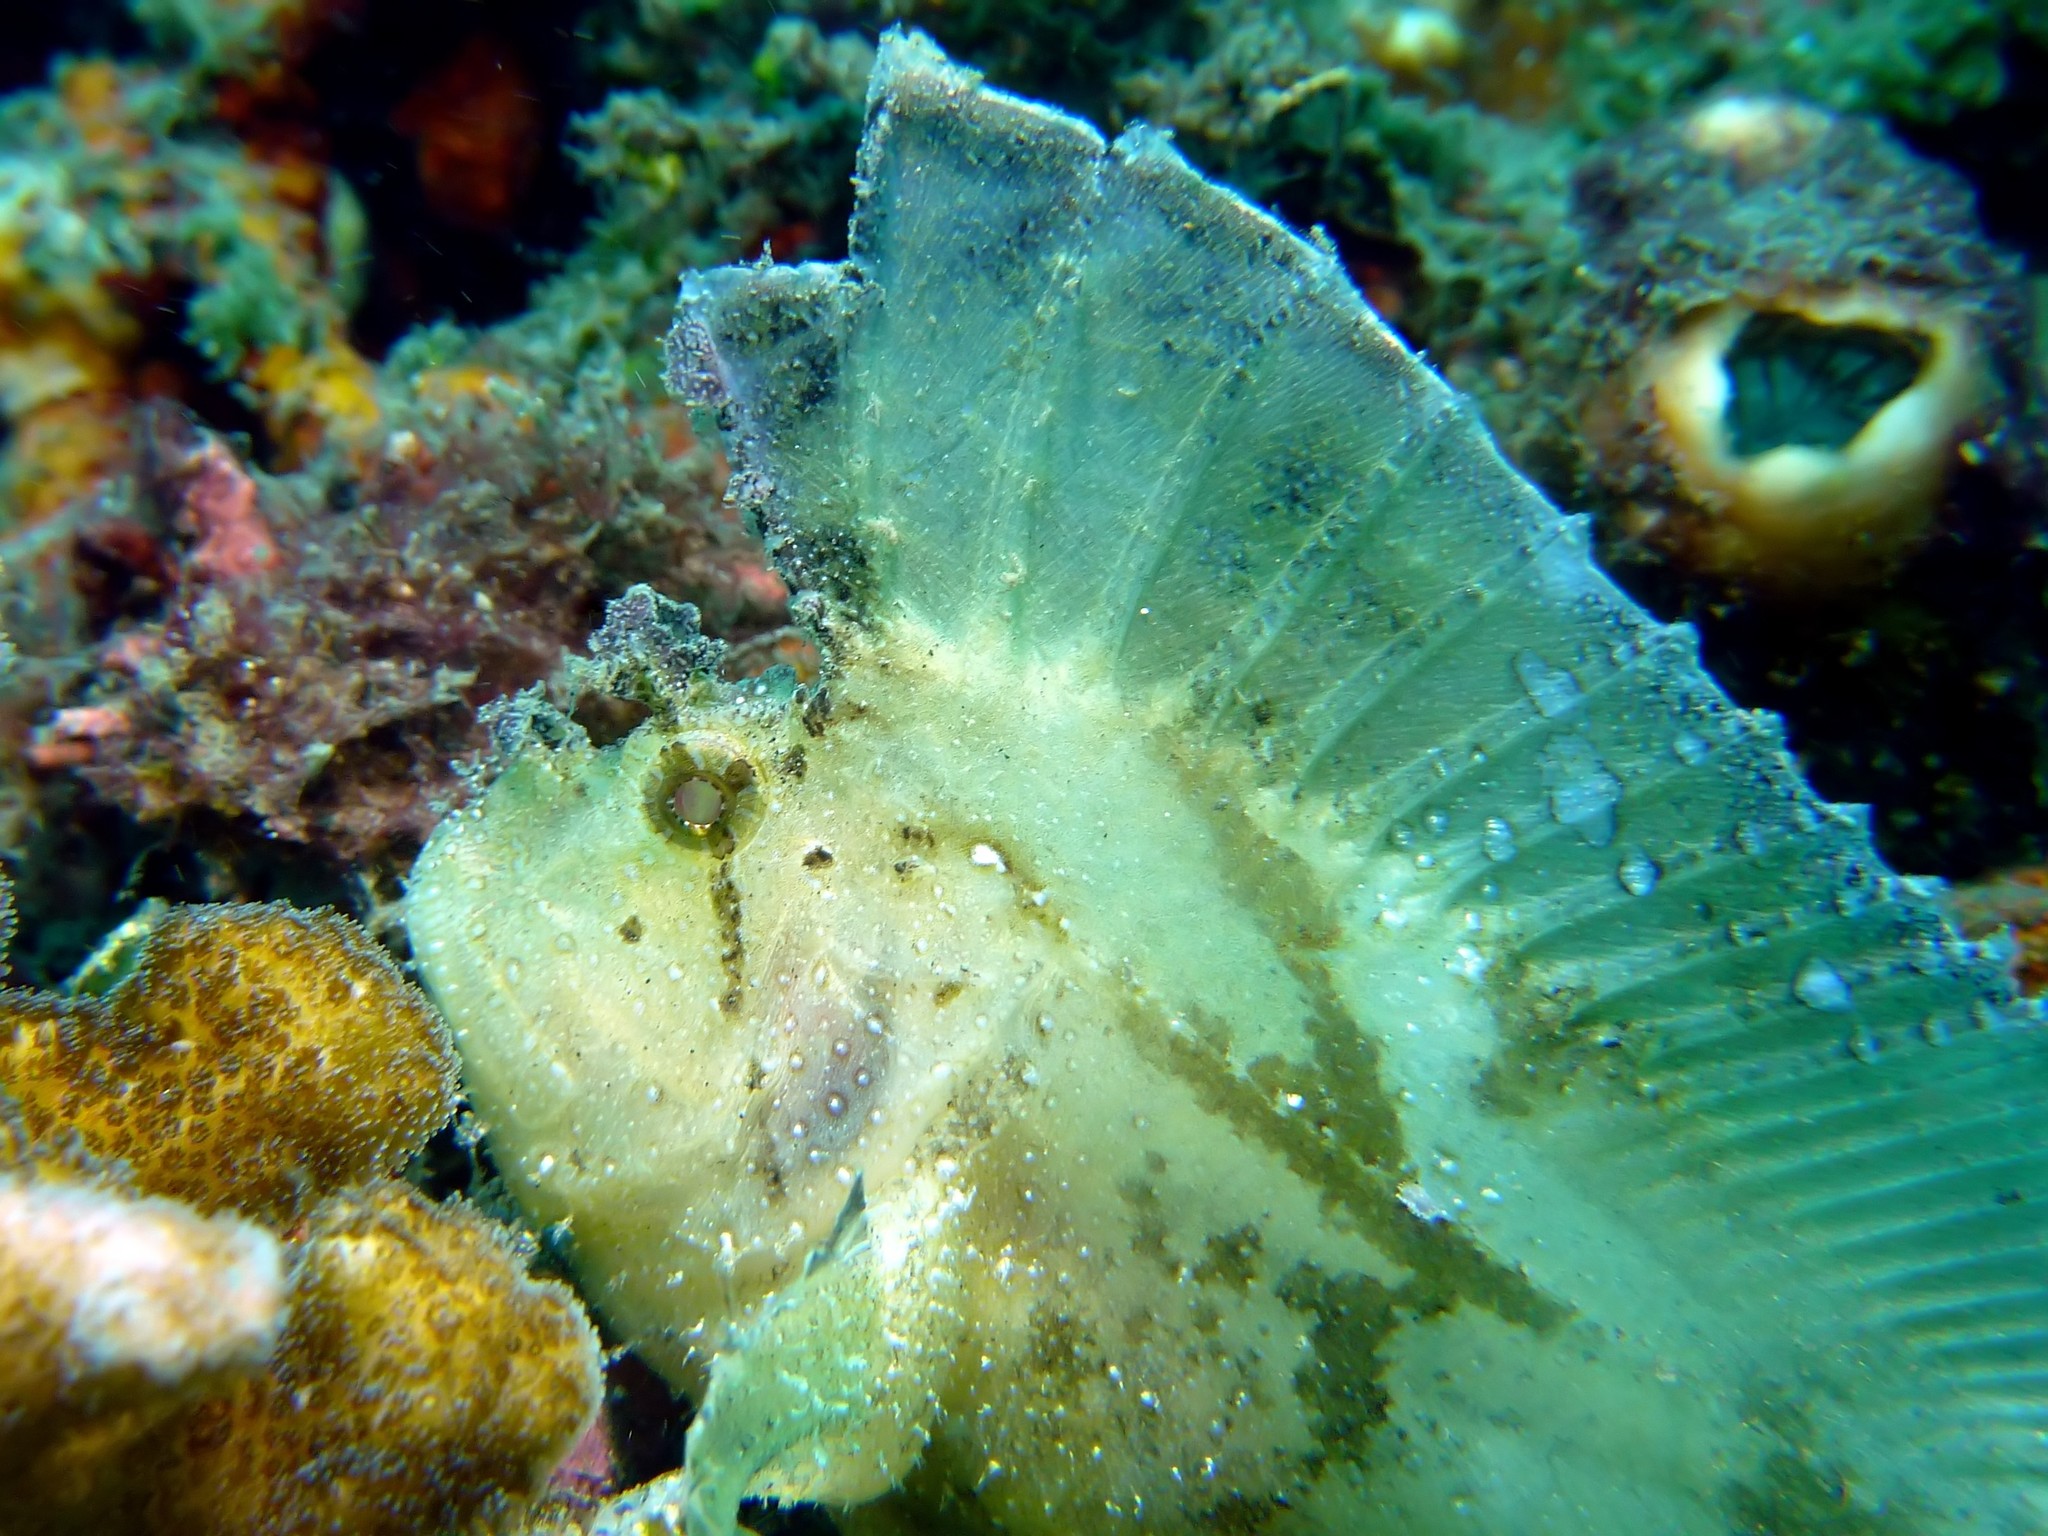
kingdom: Animalia
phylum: Chordata
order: Scorpaeniformes
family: Scorpaenidae
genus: Taenianotus
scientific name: Taenianotus triacanthus
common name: Leaf scorpionfish
